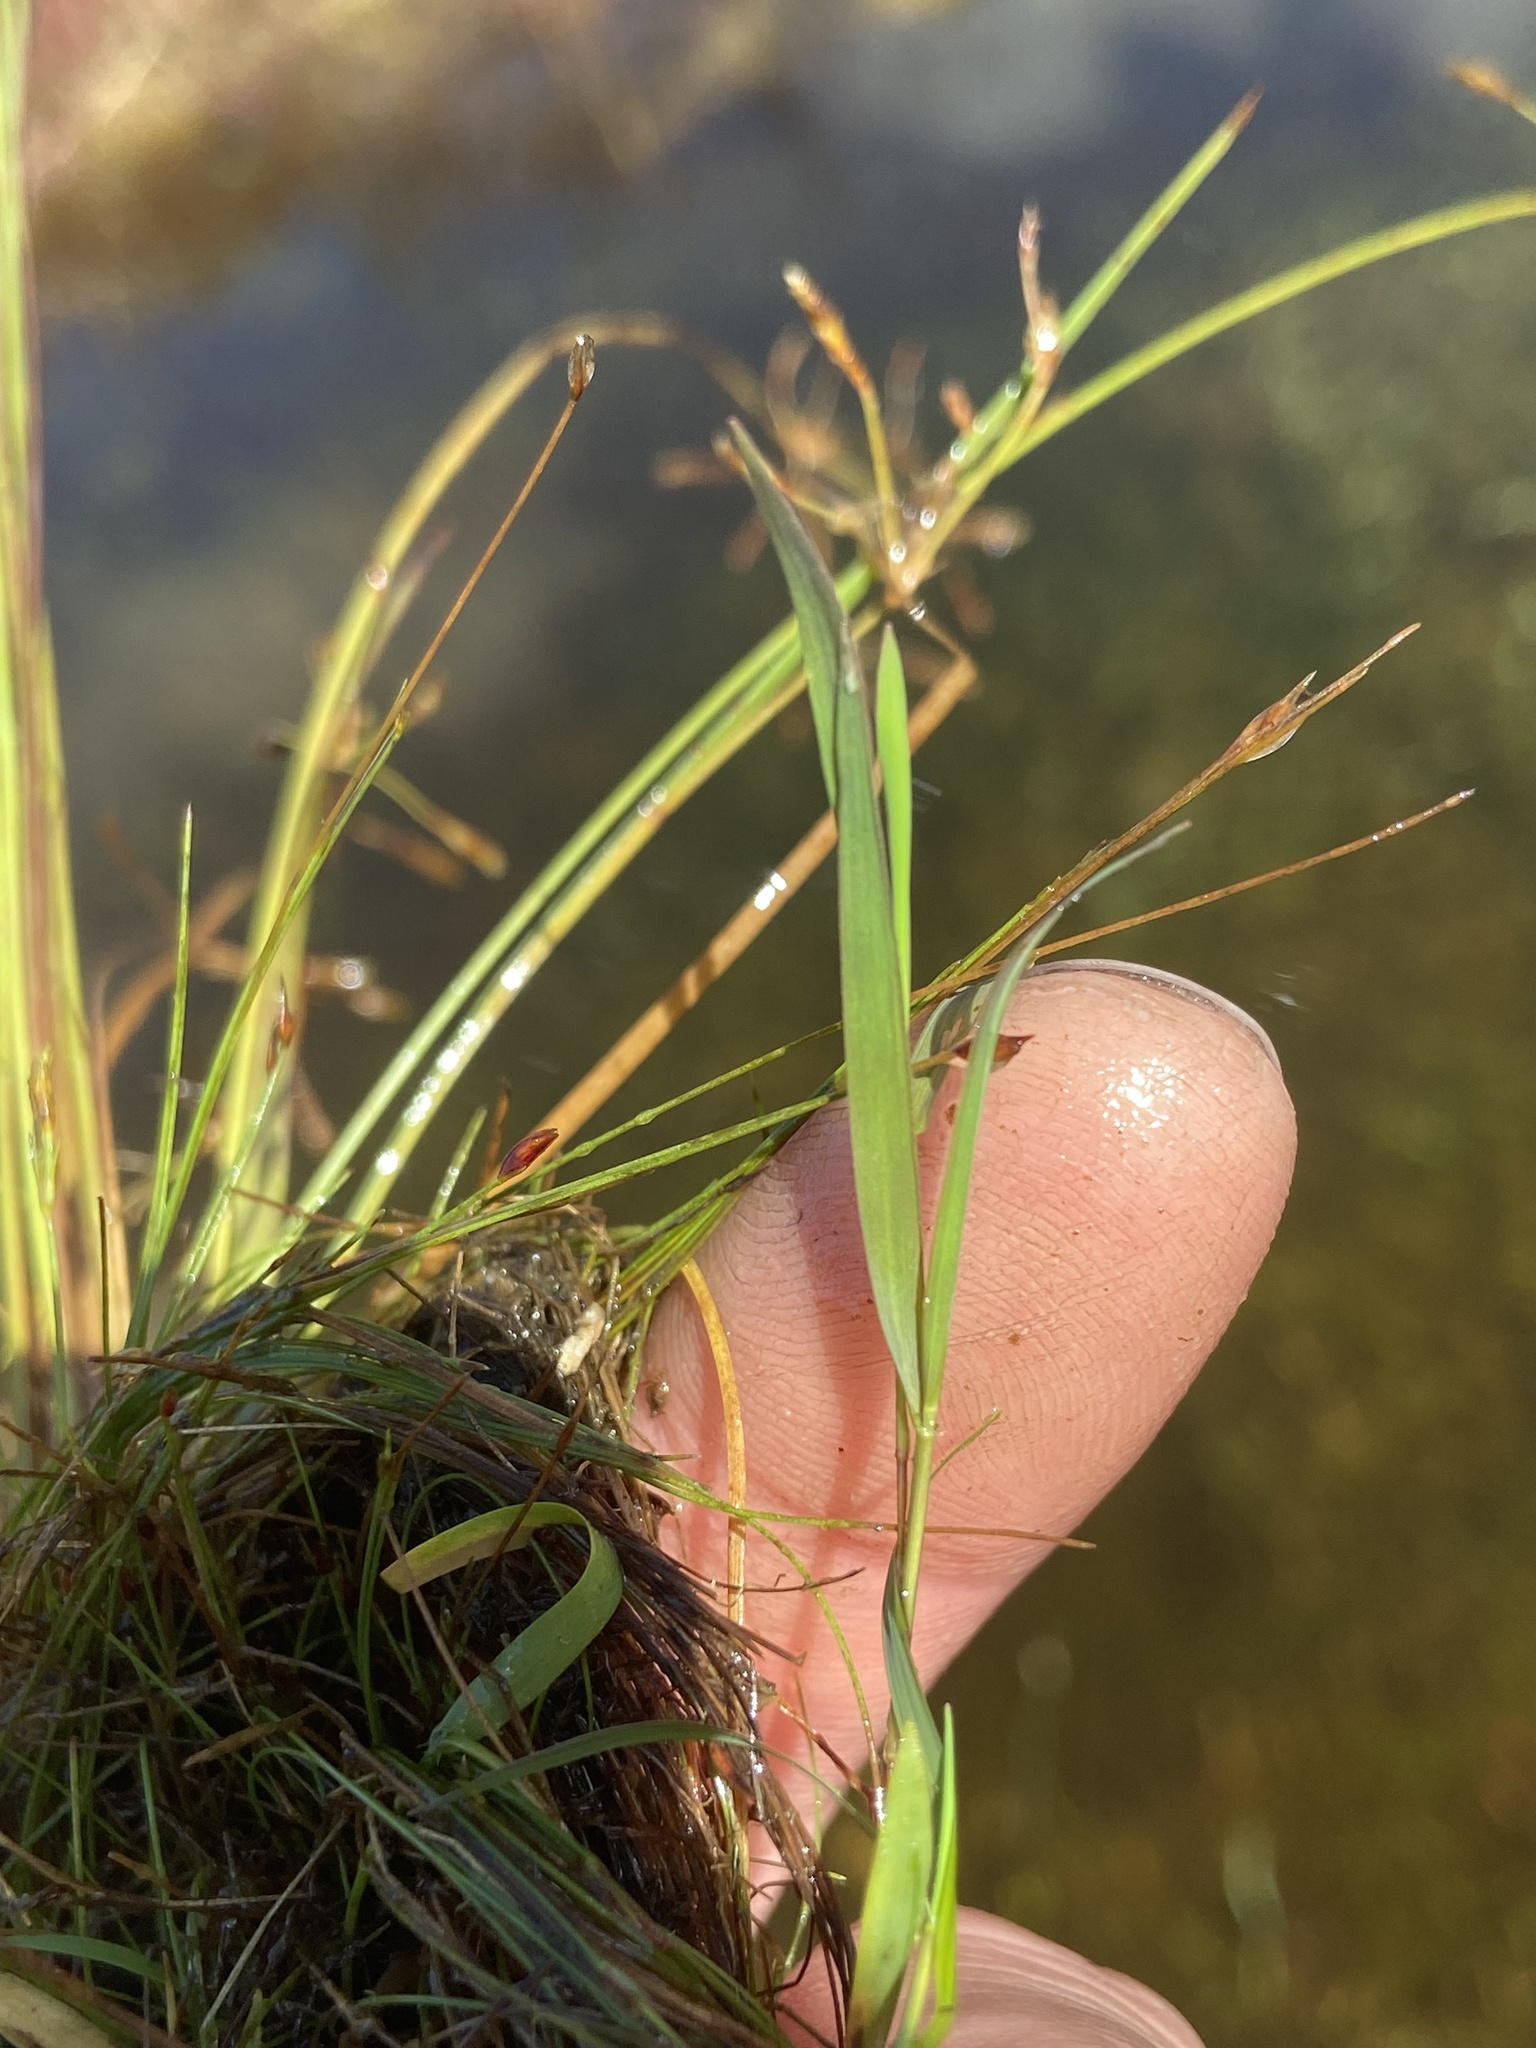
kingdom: Plantae
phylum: Tracheophyta
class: Liliopsida
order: Poales
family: Poaceae
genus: Luziola
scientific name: Luziola fluitans
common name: Silverleaf grass
